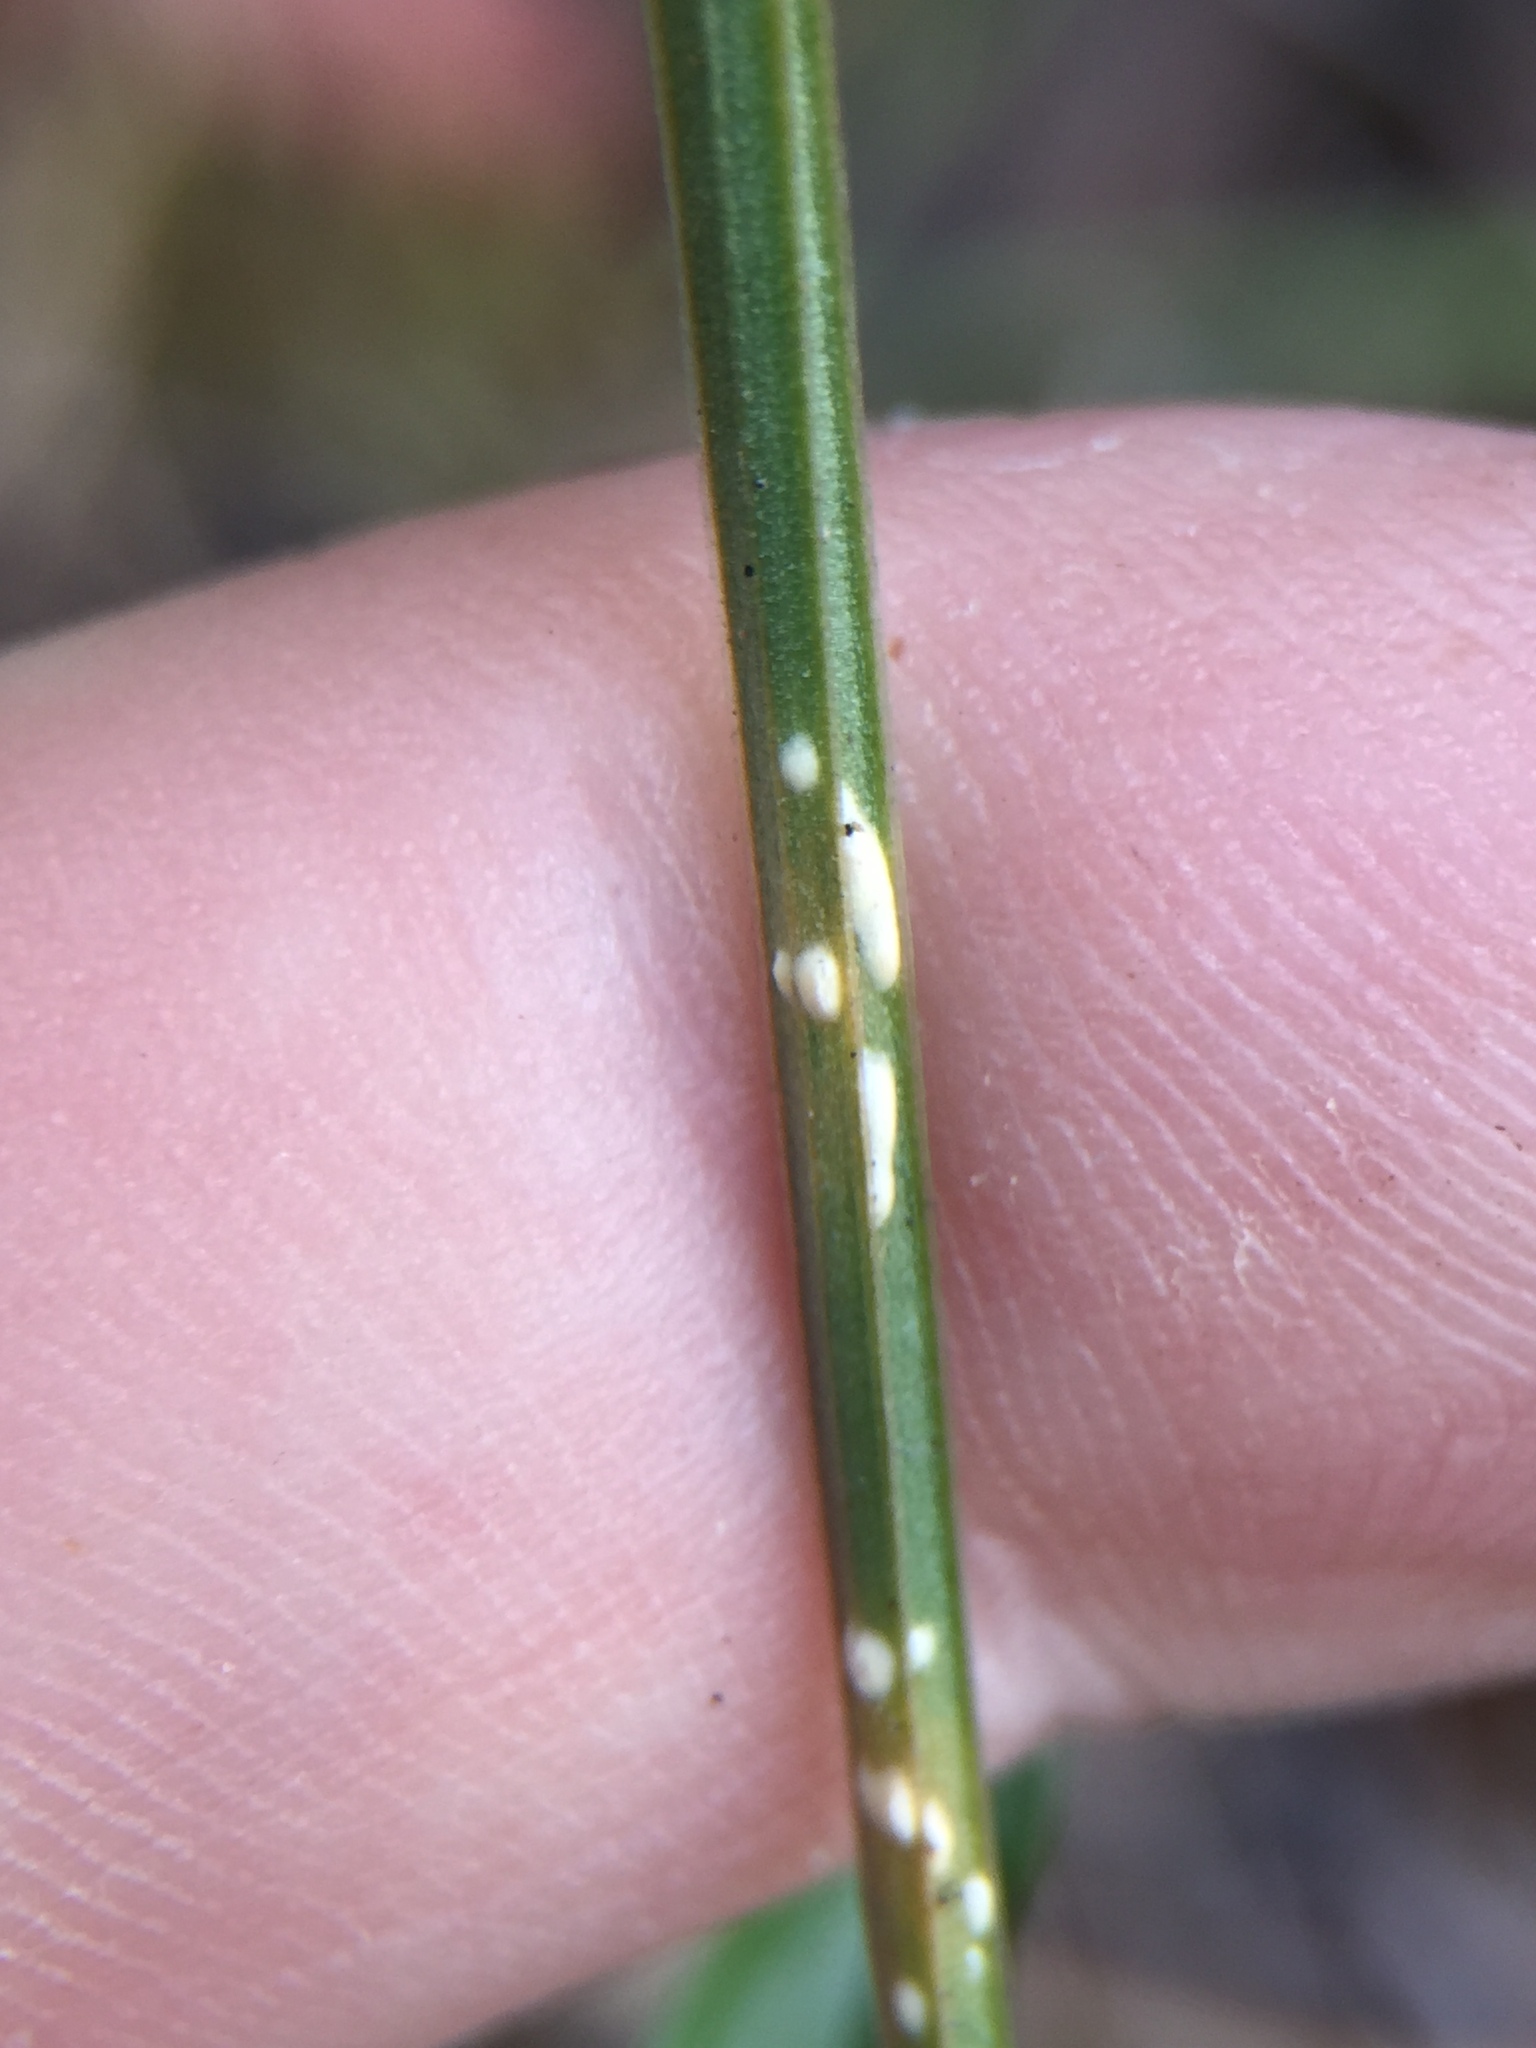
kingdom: Chromista
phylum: Oomycota
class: Peronosporea
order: Albuginales
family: Albuginaceae
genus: Pustula
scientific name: Pustula centaurii
